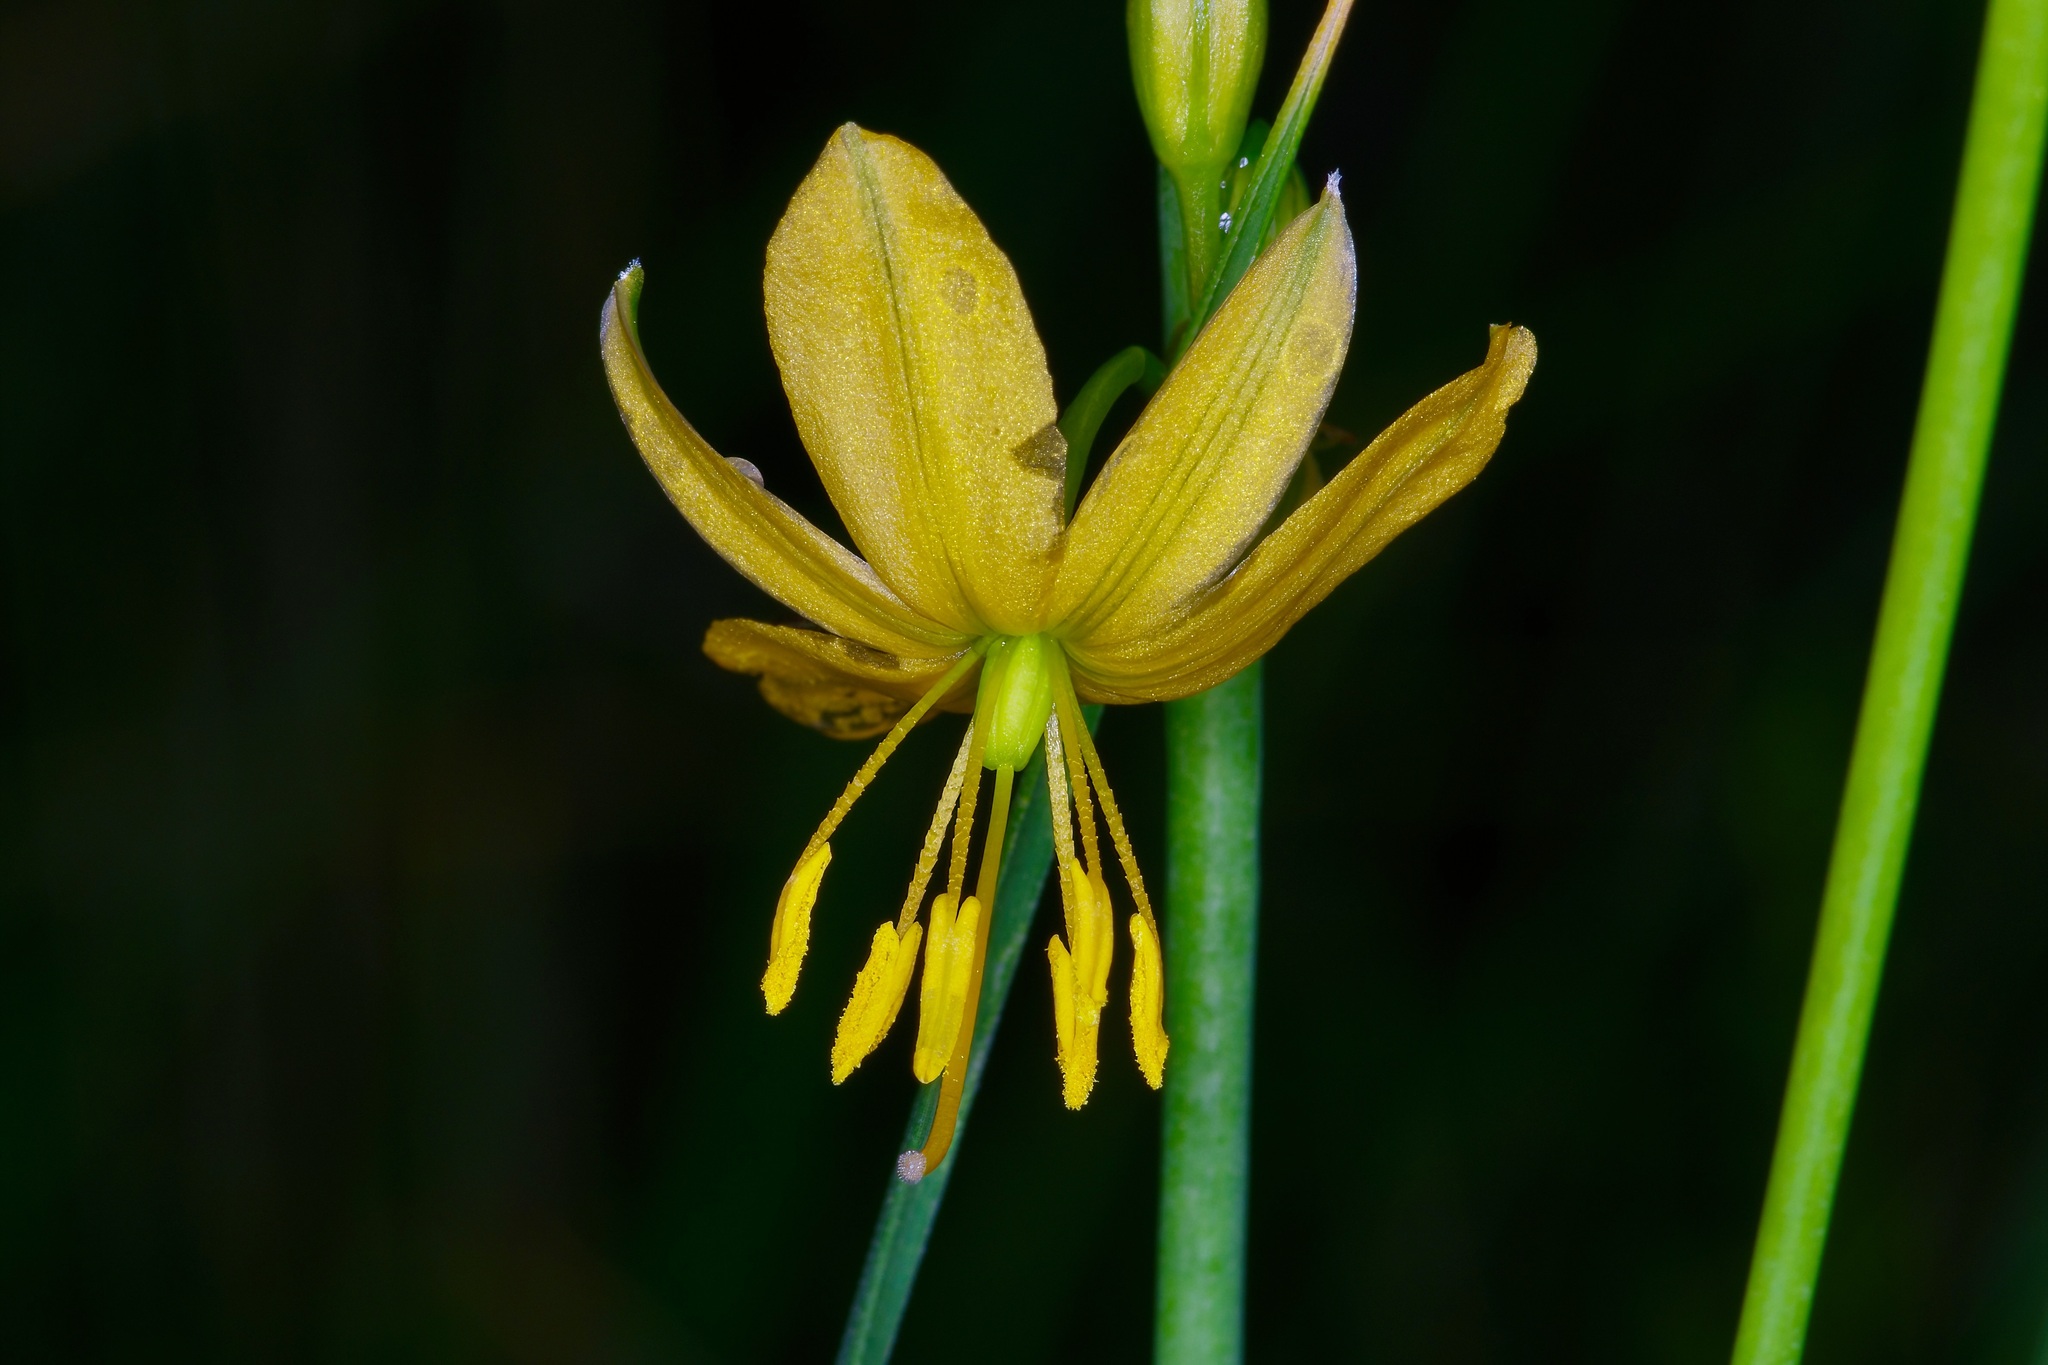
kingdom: Plantae
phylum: Tracheophyta
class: Liliopsida
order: Asparagales
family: Asparagaceae
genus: Echeandia
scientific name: Echeandia flavescens
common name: Amberlily
